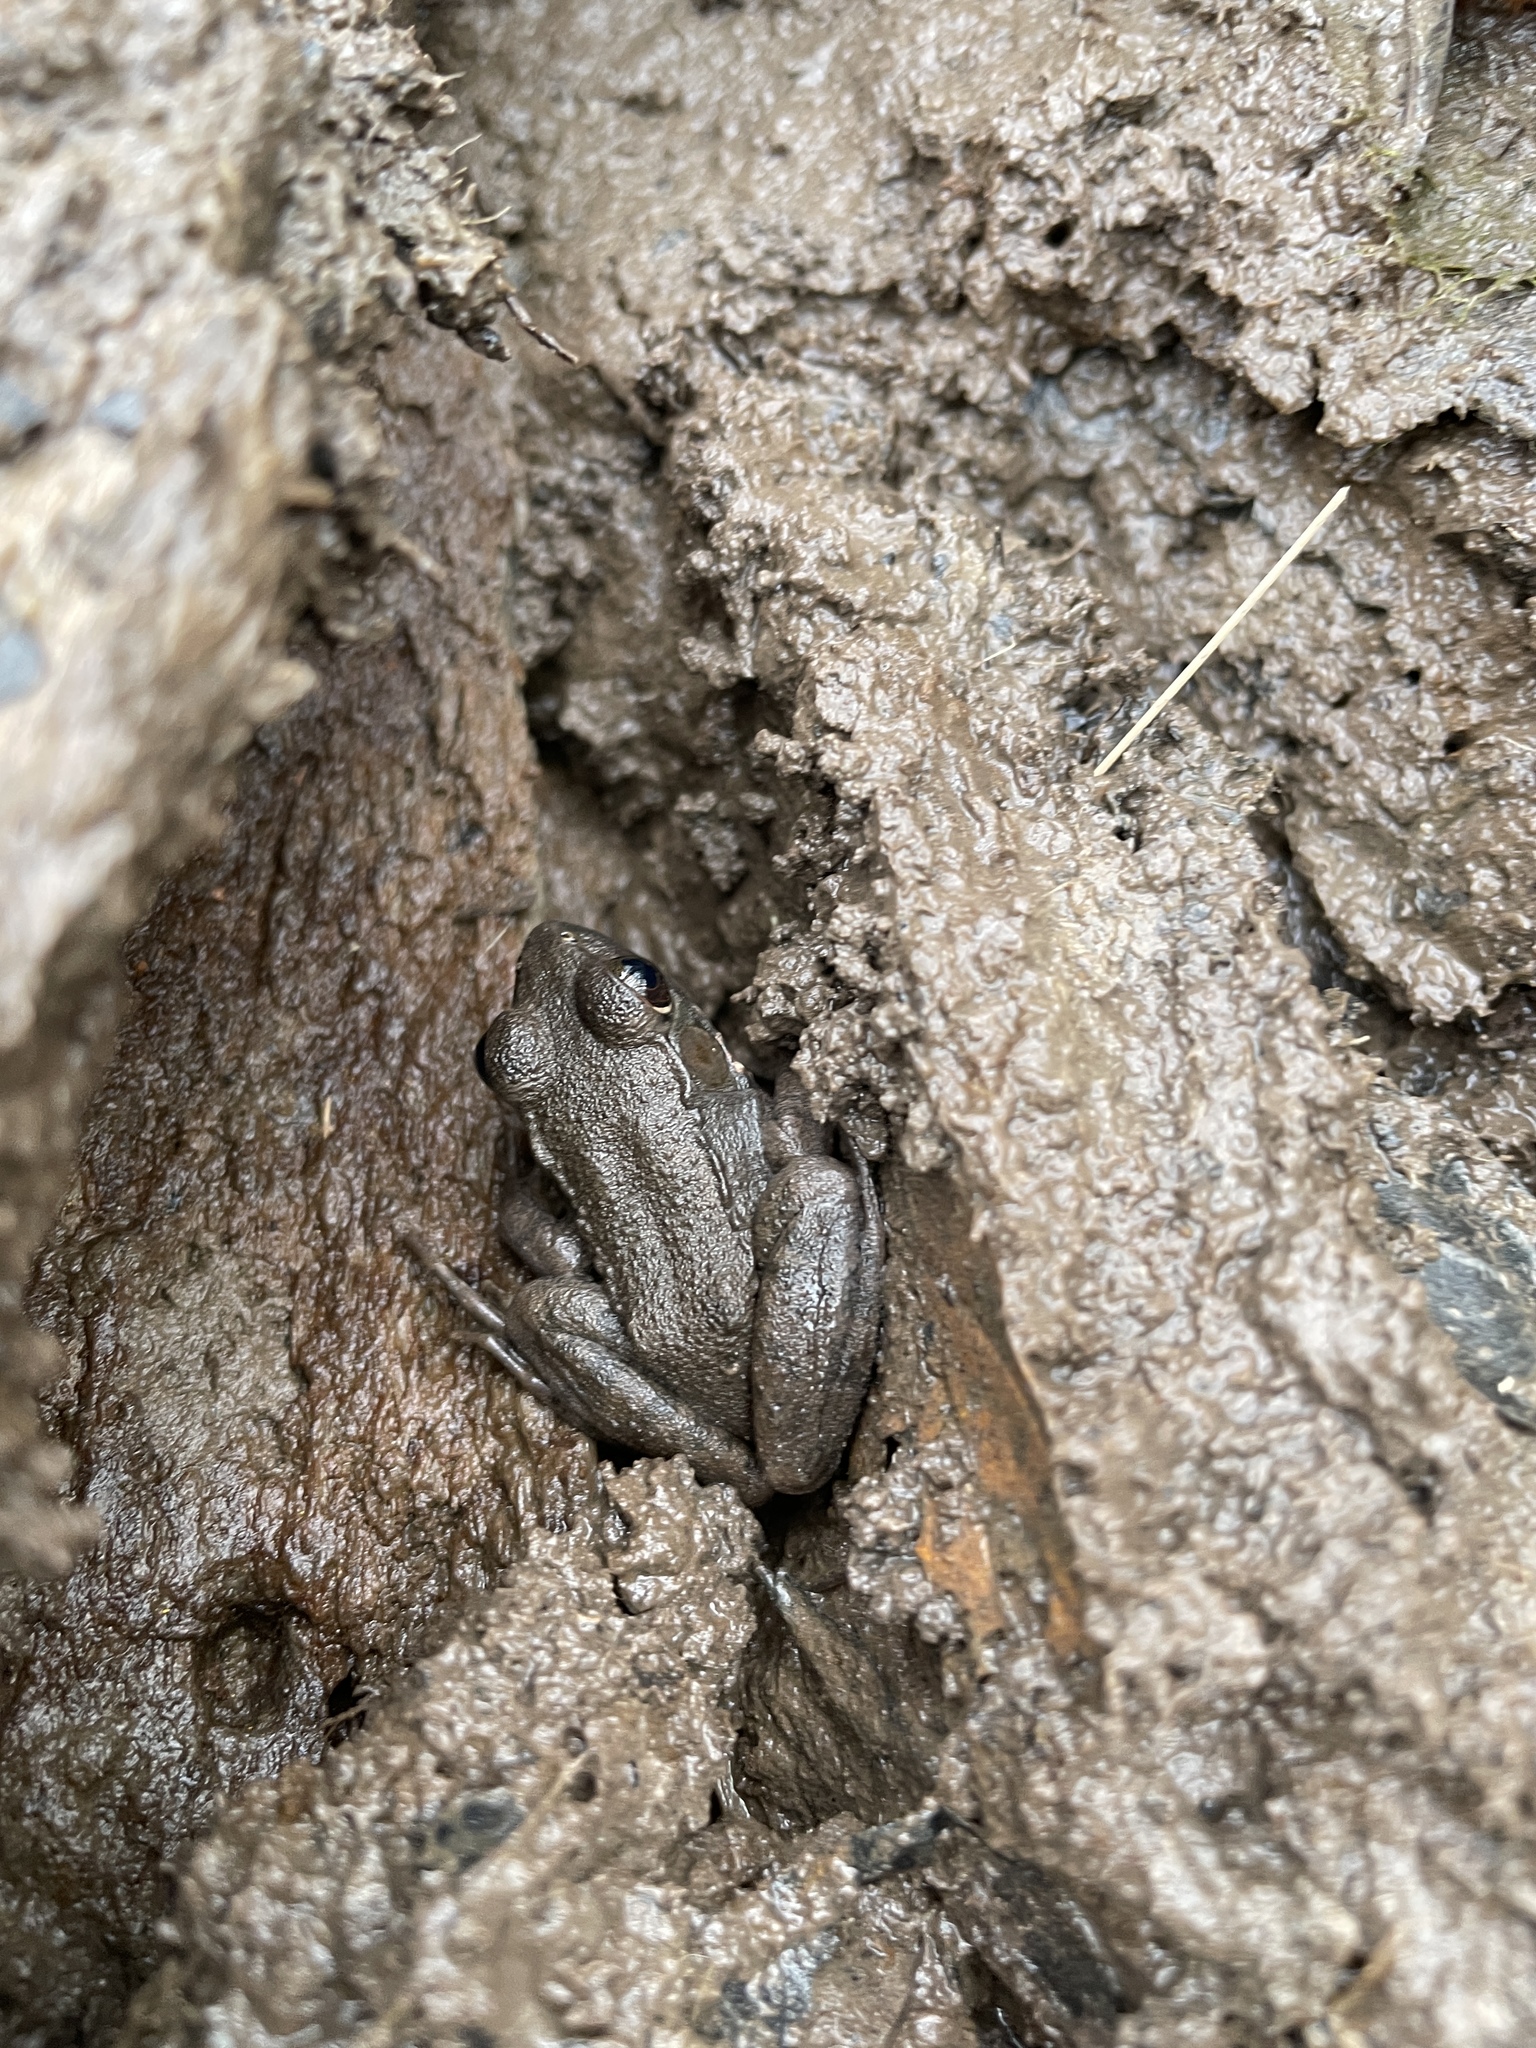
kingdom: Animalia
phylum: Chordata
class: Amphibia
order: Anura
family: Ranidae
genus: Lithobates
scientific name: Lithobates clamitans
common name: Green frog
